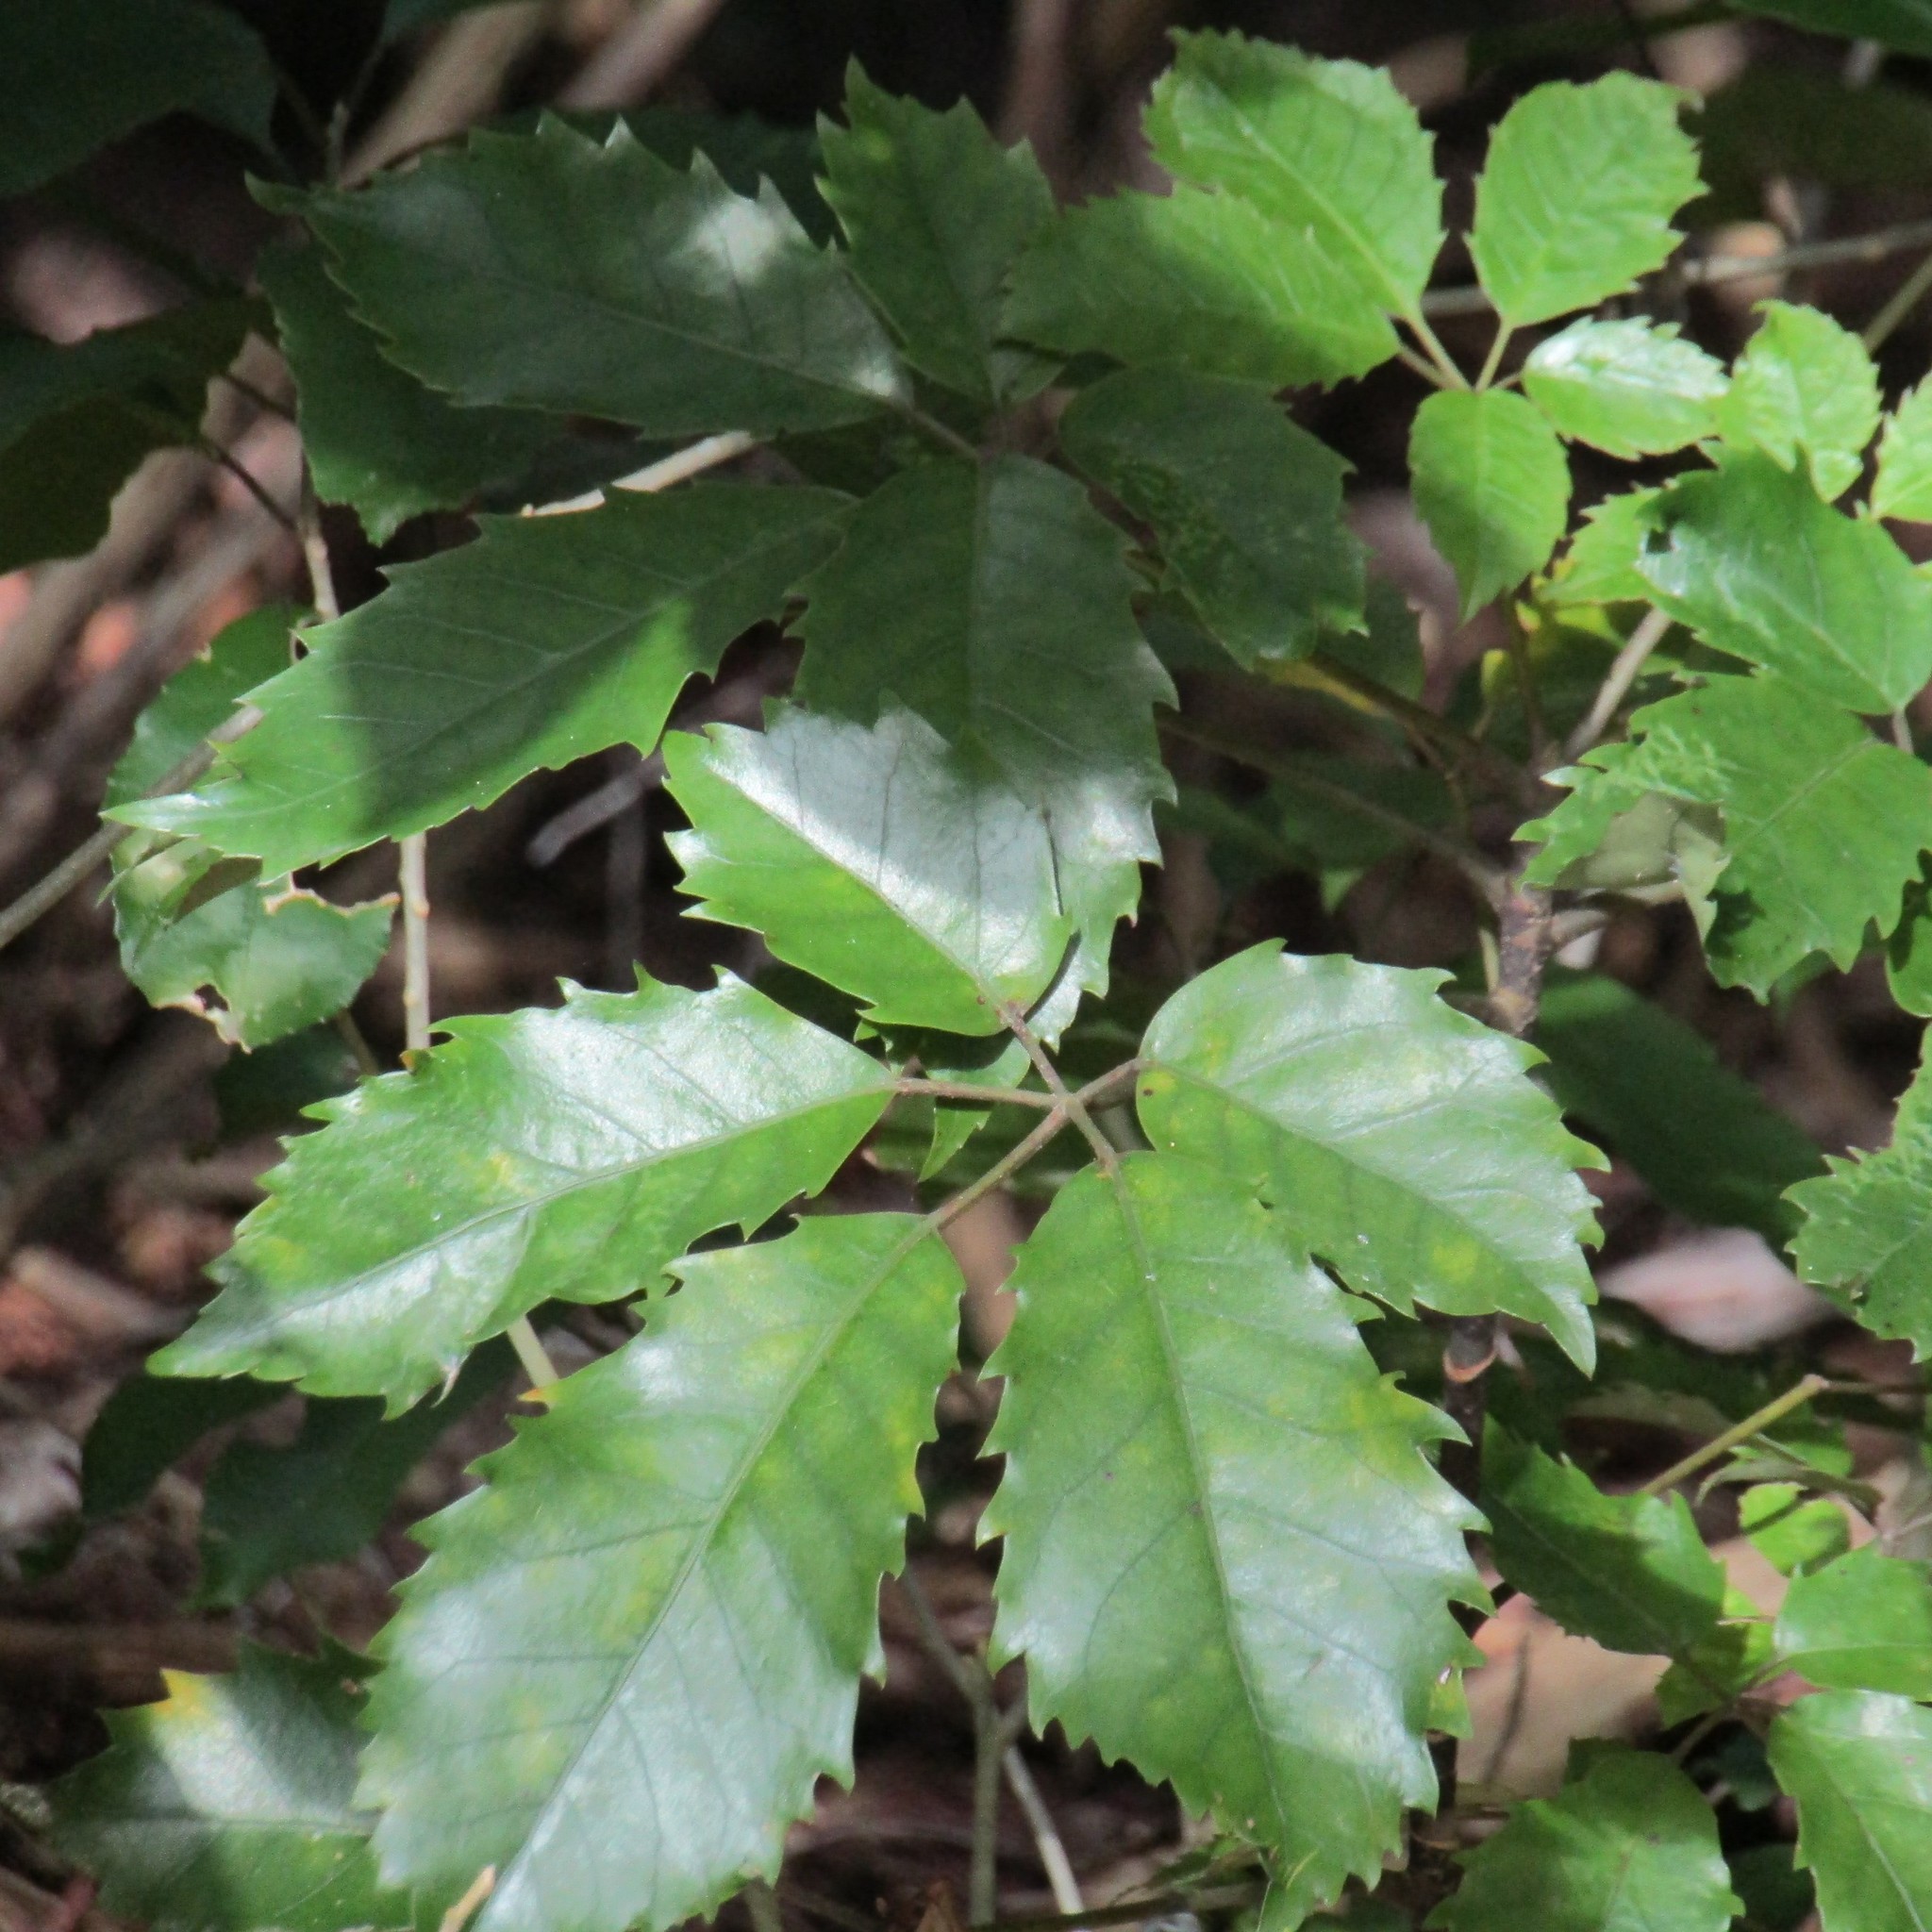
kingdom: Plantae
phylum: Tracheophyta
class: Magnoliopsida
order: Apiales
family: Araliaceae
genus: Neopanax
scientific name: Neopanax arboreus
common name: Five-fingers
